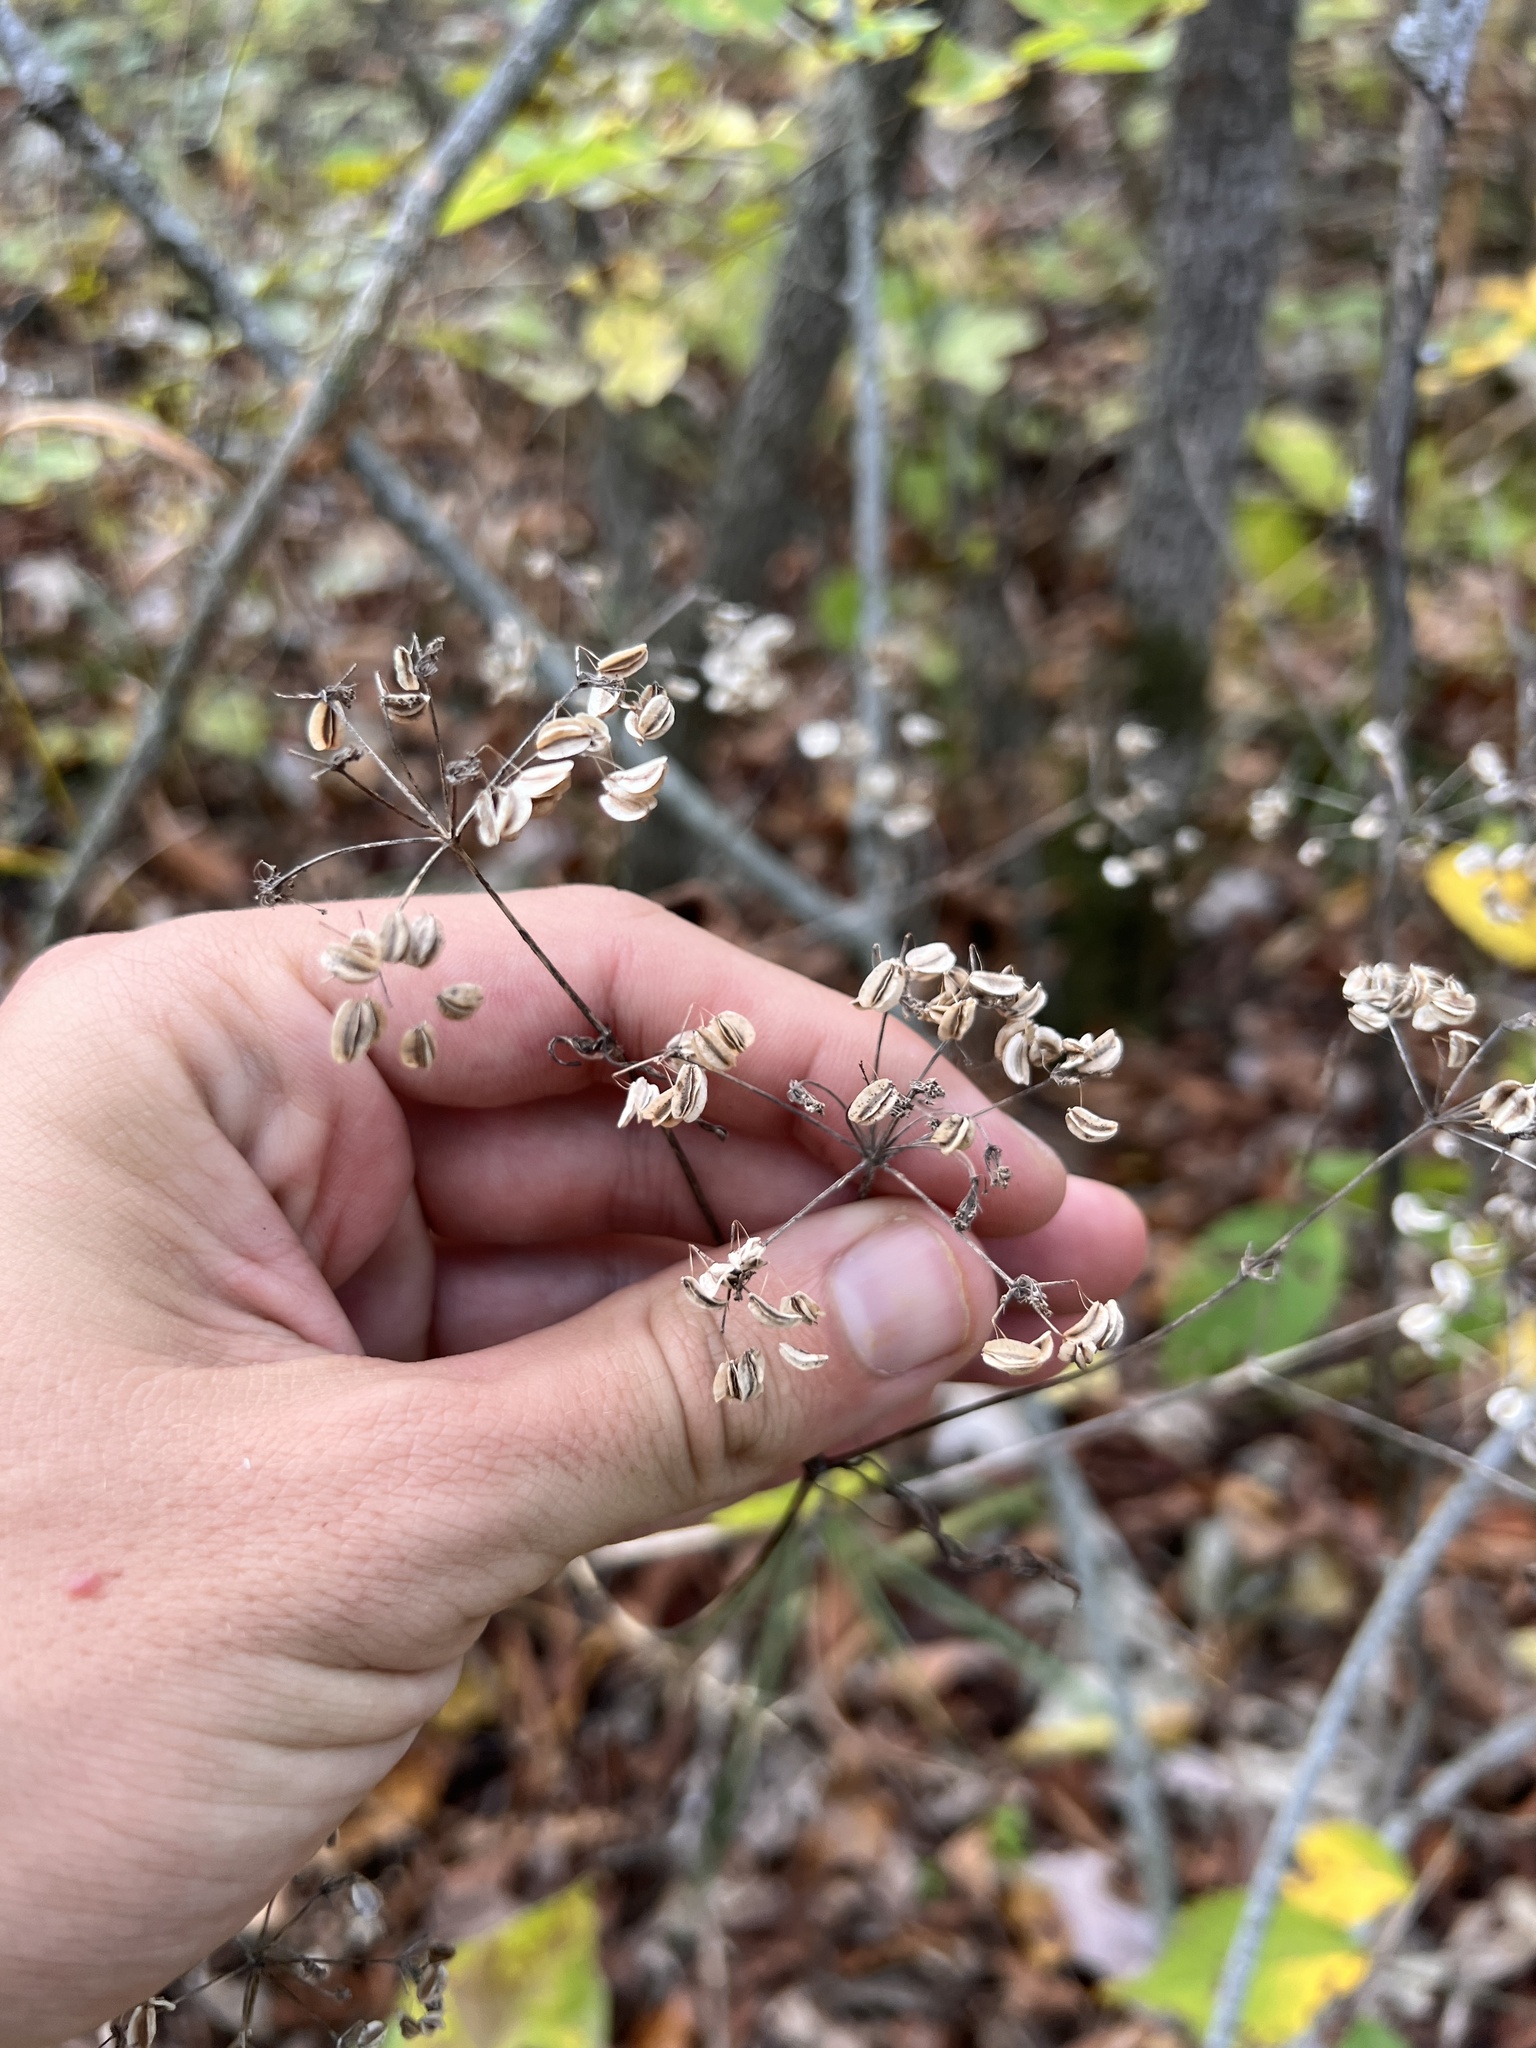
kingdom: Plantae
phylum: Tracheophyta
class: Magnoliopsida
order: Apiales
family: Apiaceae
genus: Thaspium
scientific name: Thaspium barbinode
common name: Bearded meadow-parsnip
